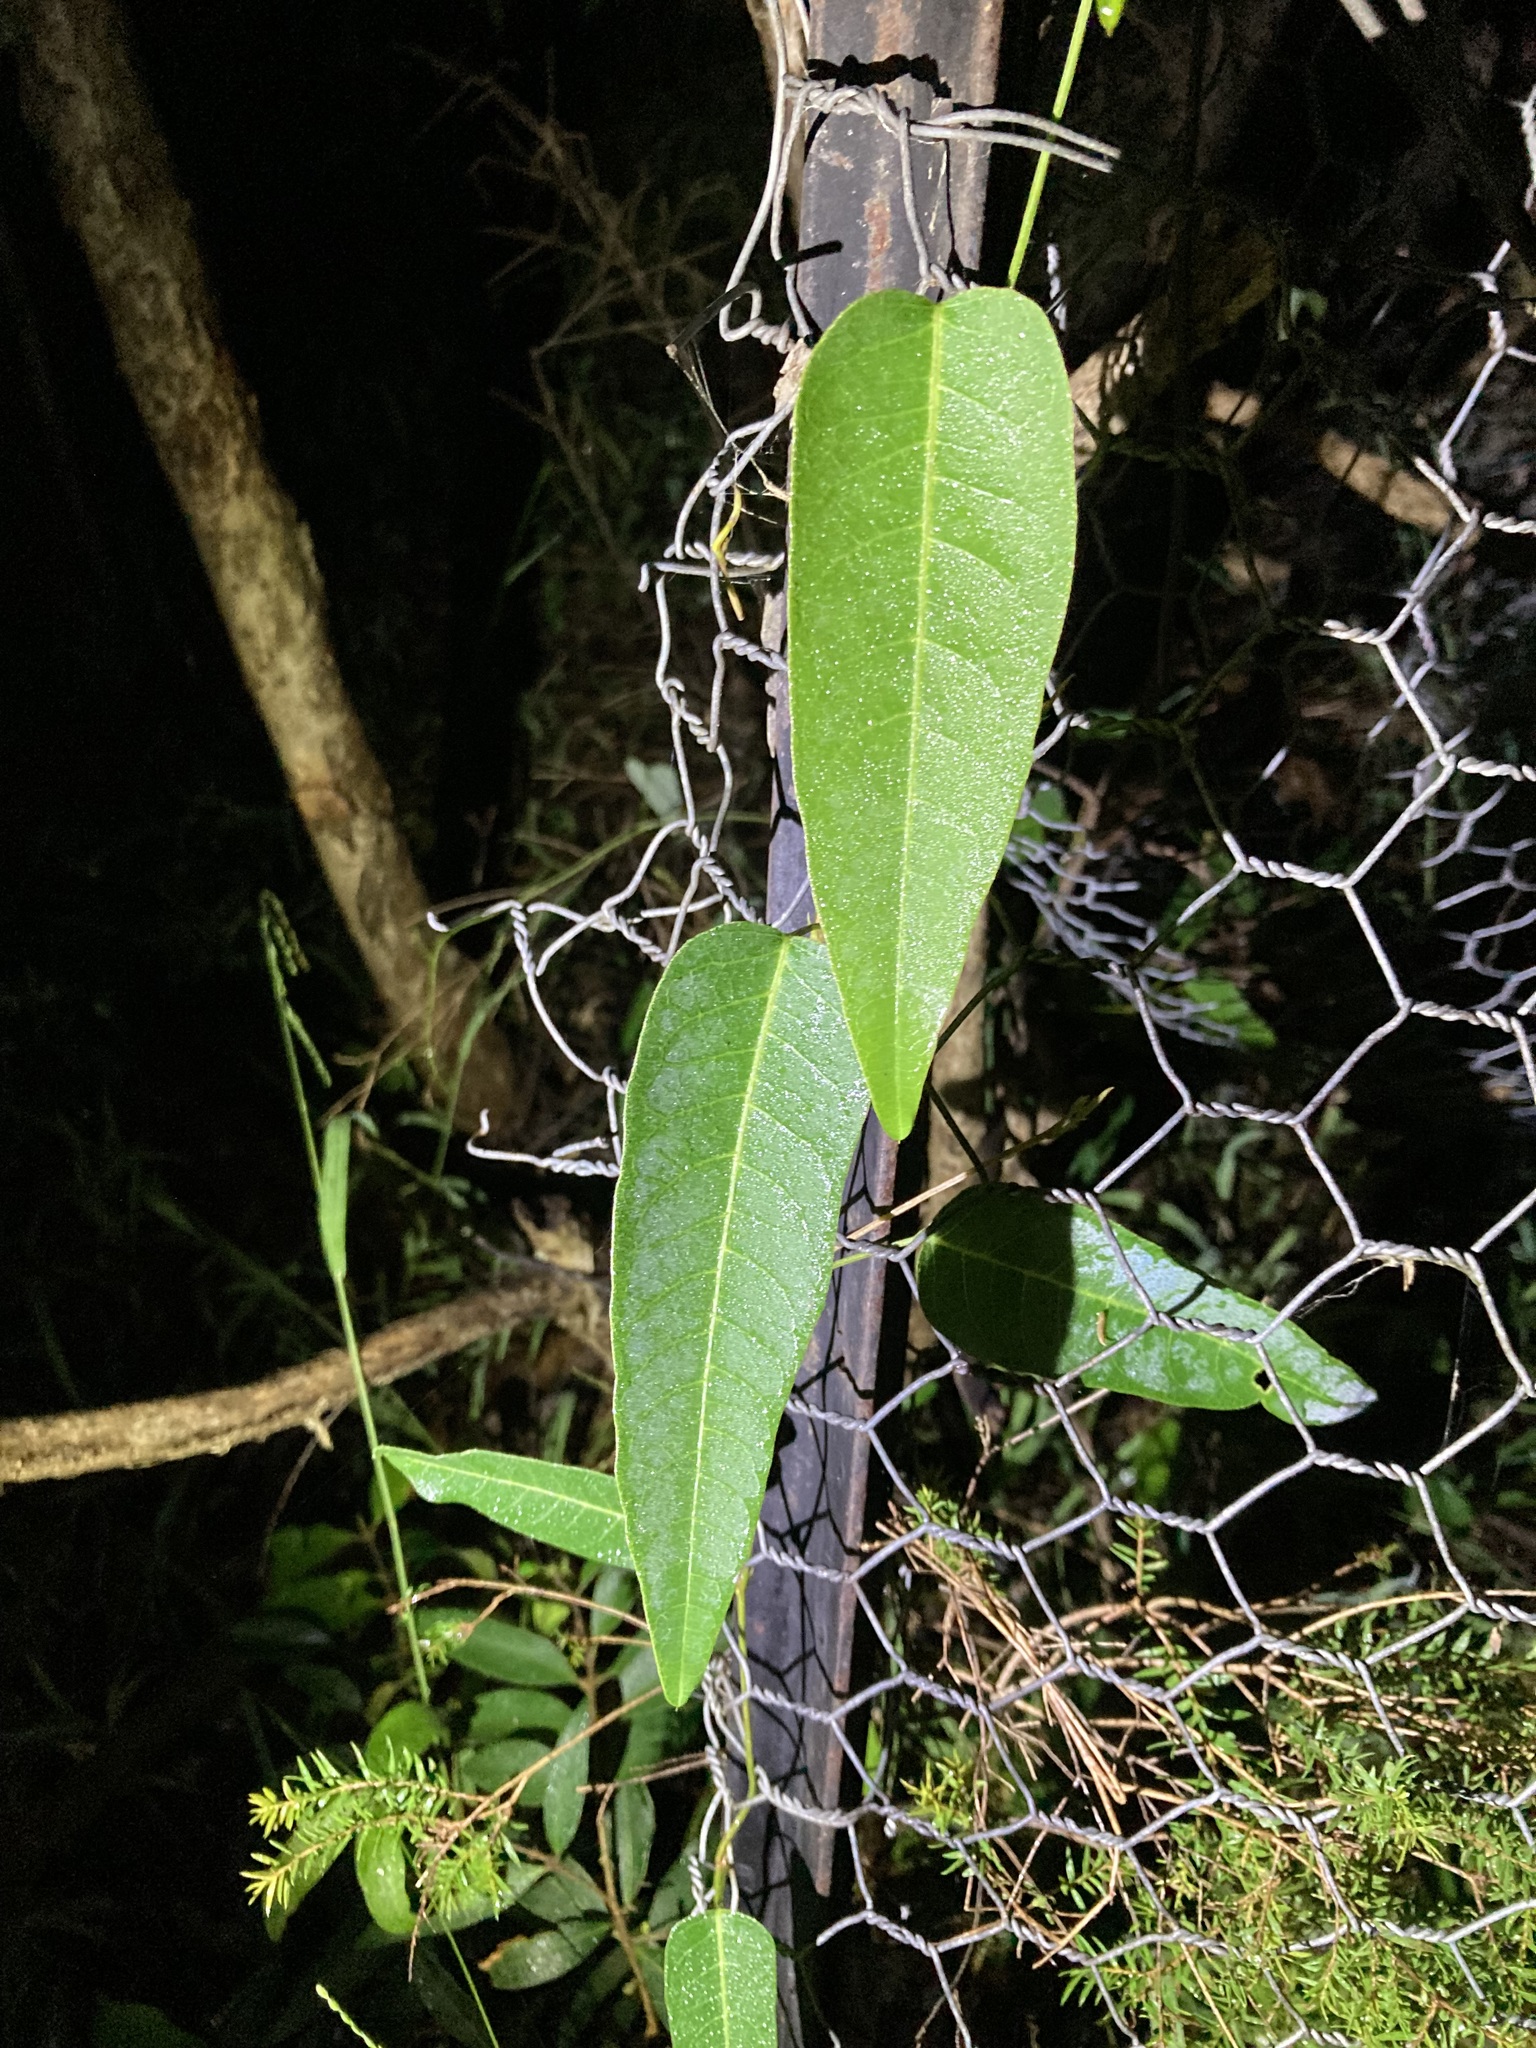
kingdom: Plantae
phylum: Tracheophyta
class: Magnoliopsida
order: Fabales
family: Fabaceae
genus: Hardenbergia
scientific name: Hardenbergia violacea
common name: Coral-pea
